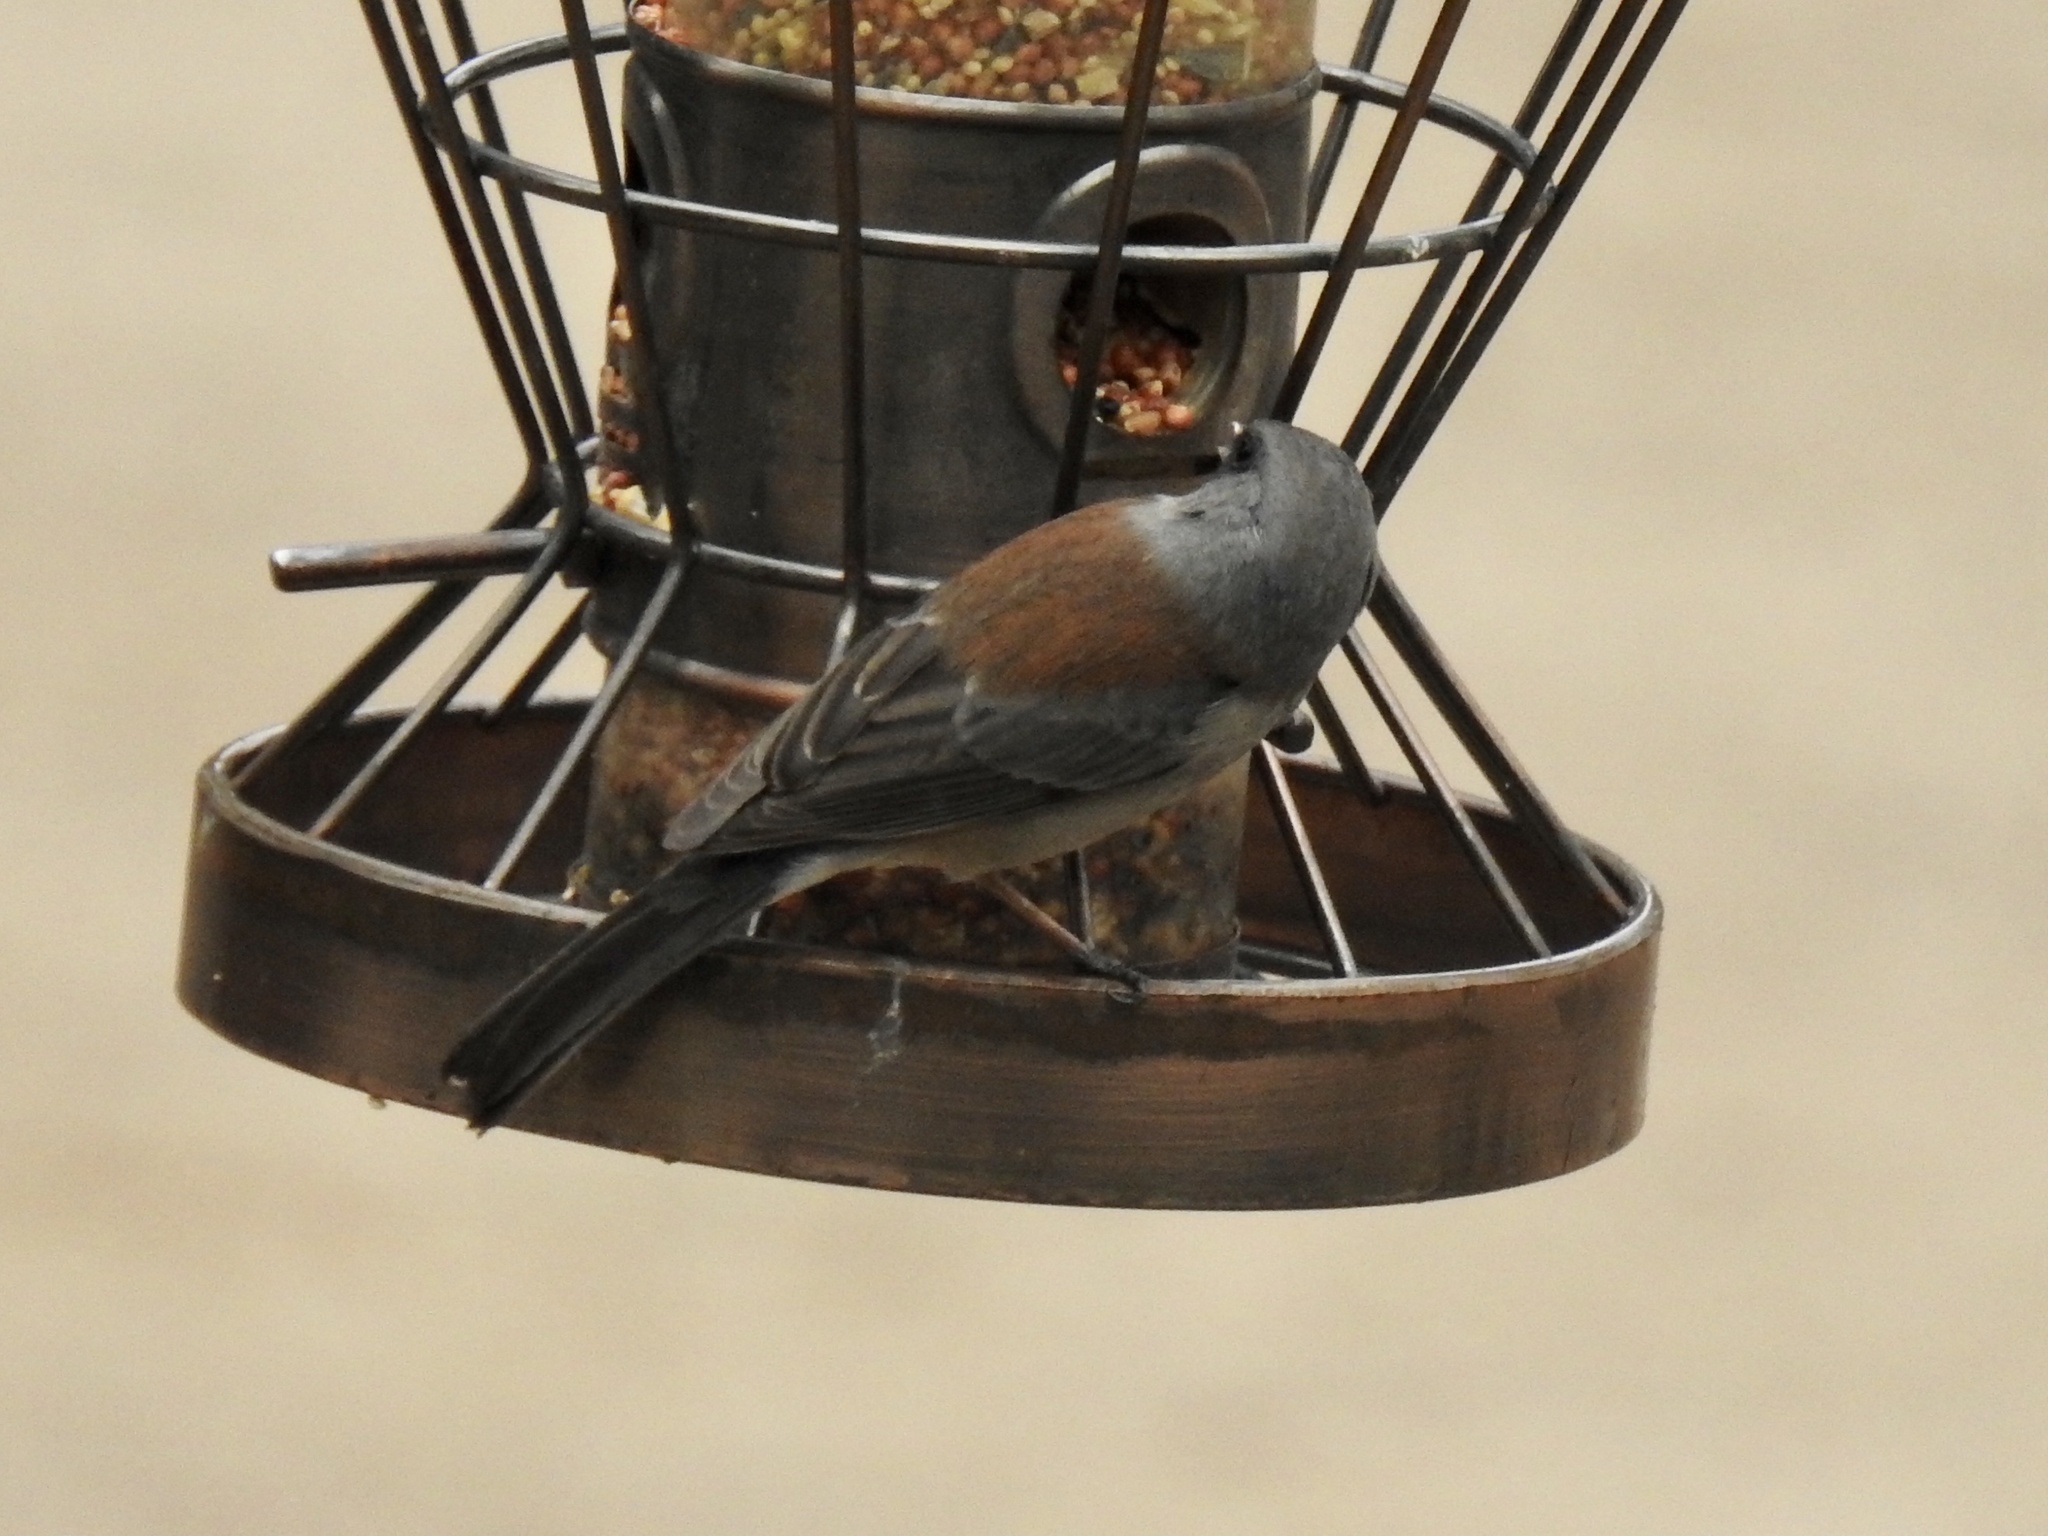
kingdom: Animalia
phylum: Chordata
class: Aves
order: Passeriformes
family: Passerellidae
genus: Junco
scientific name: Junco hyemalis
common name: Dark-eyed junco
